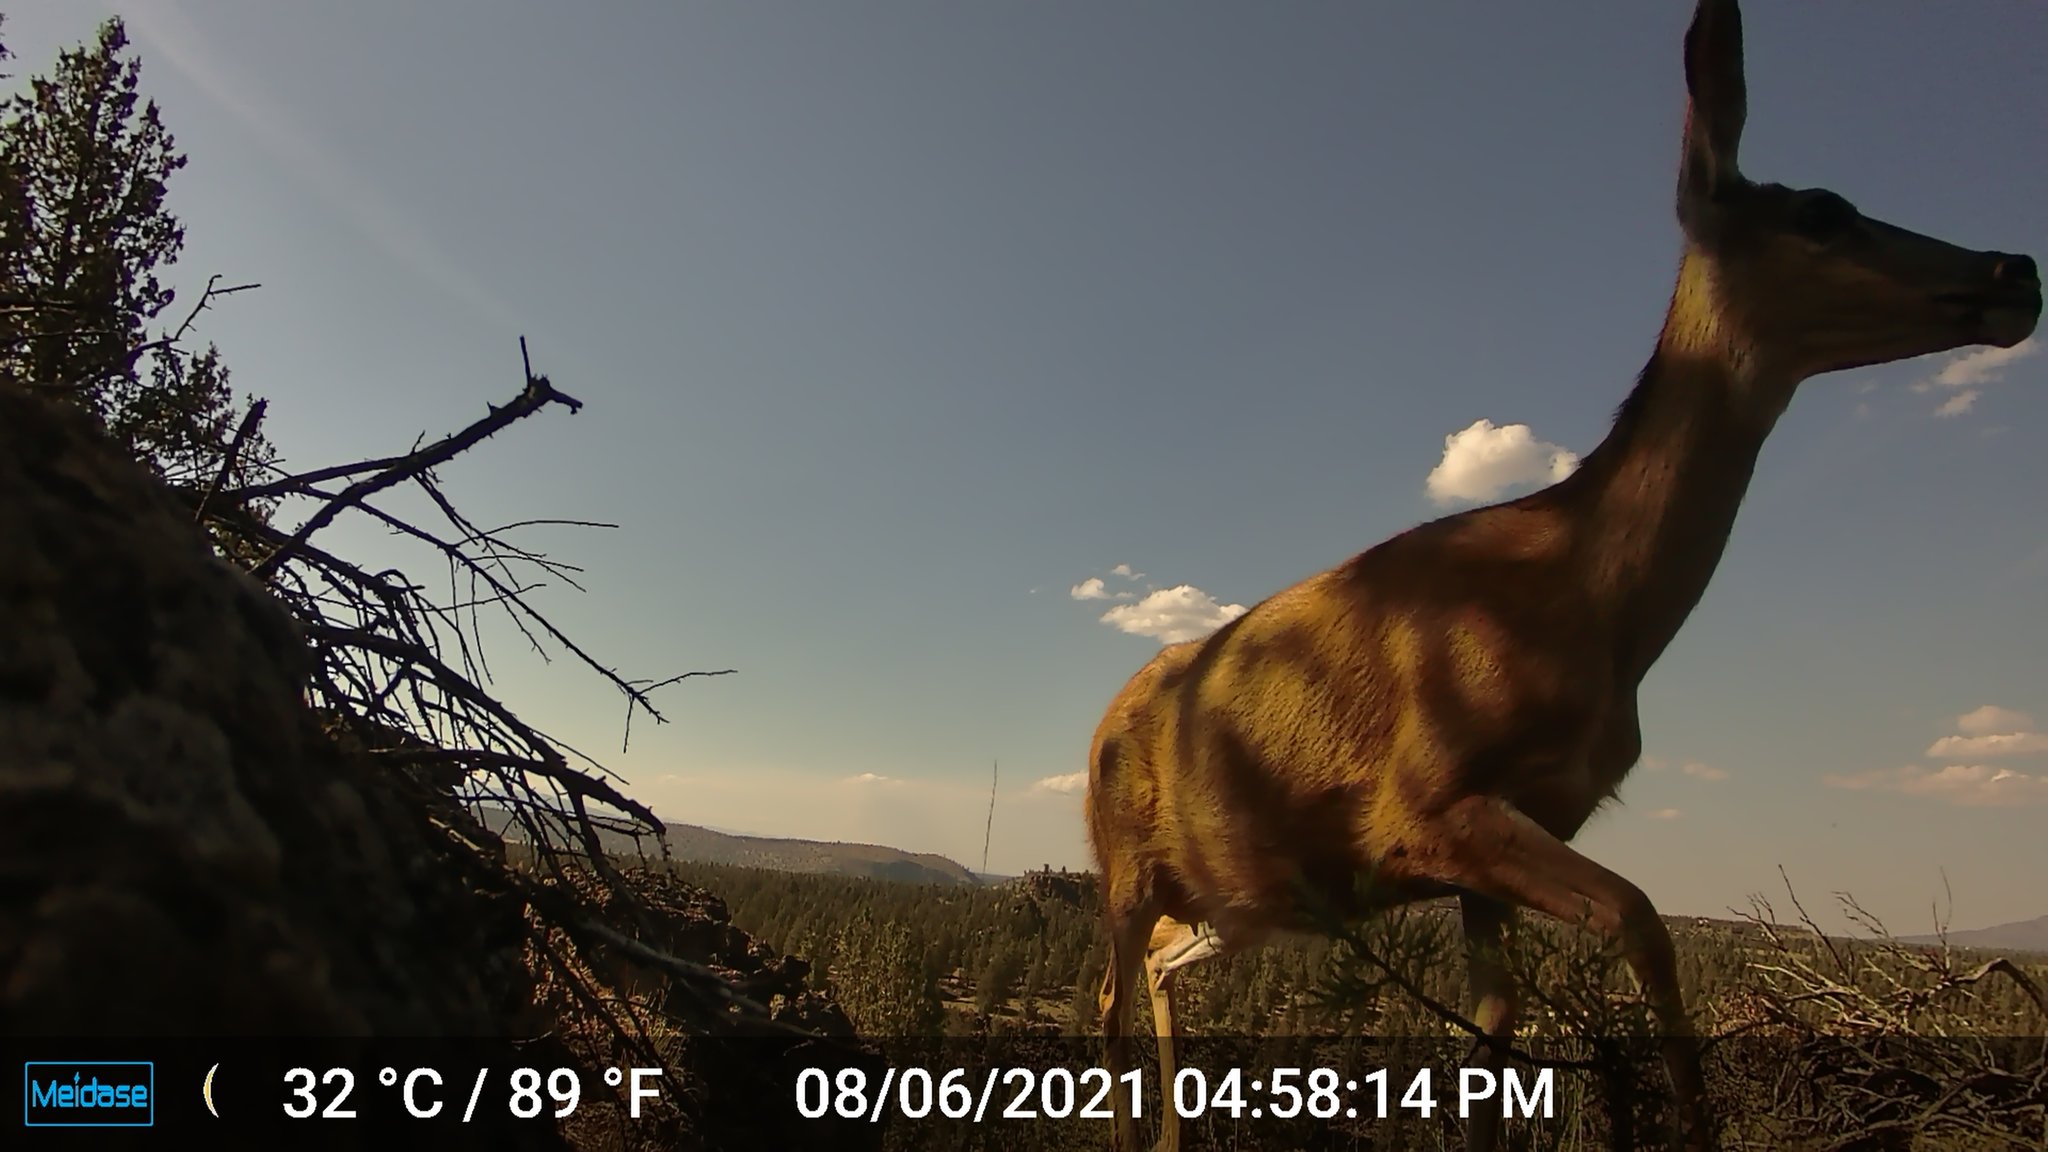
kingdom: Animalia
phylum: Chordata
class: Mammalia
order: Artiodactyla
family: Cervidae
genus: Odocoileus
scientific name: Odocoileus hemionus
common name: Mule deer
